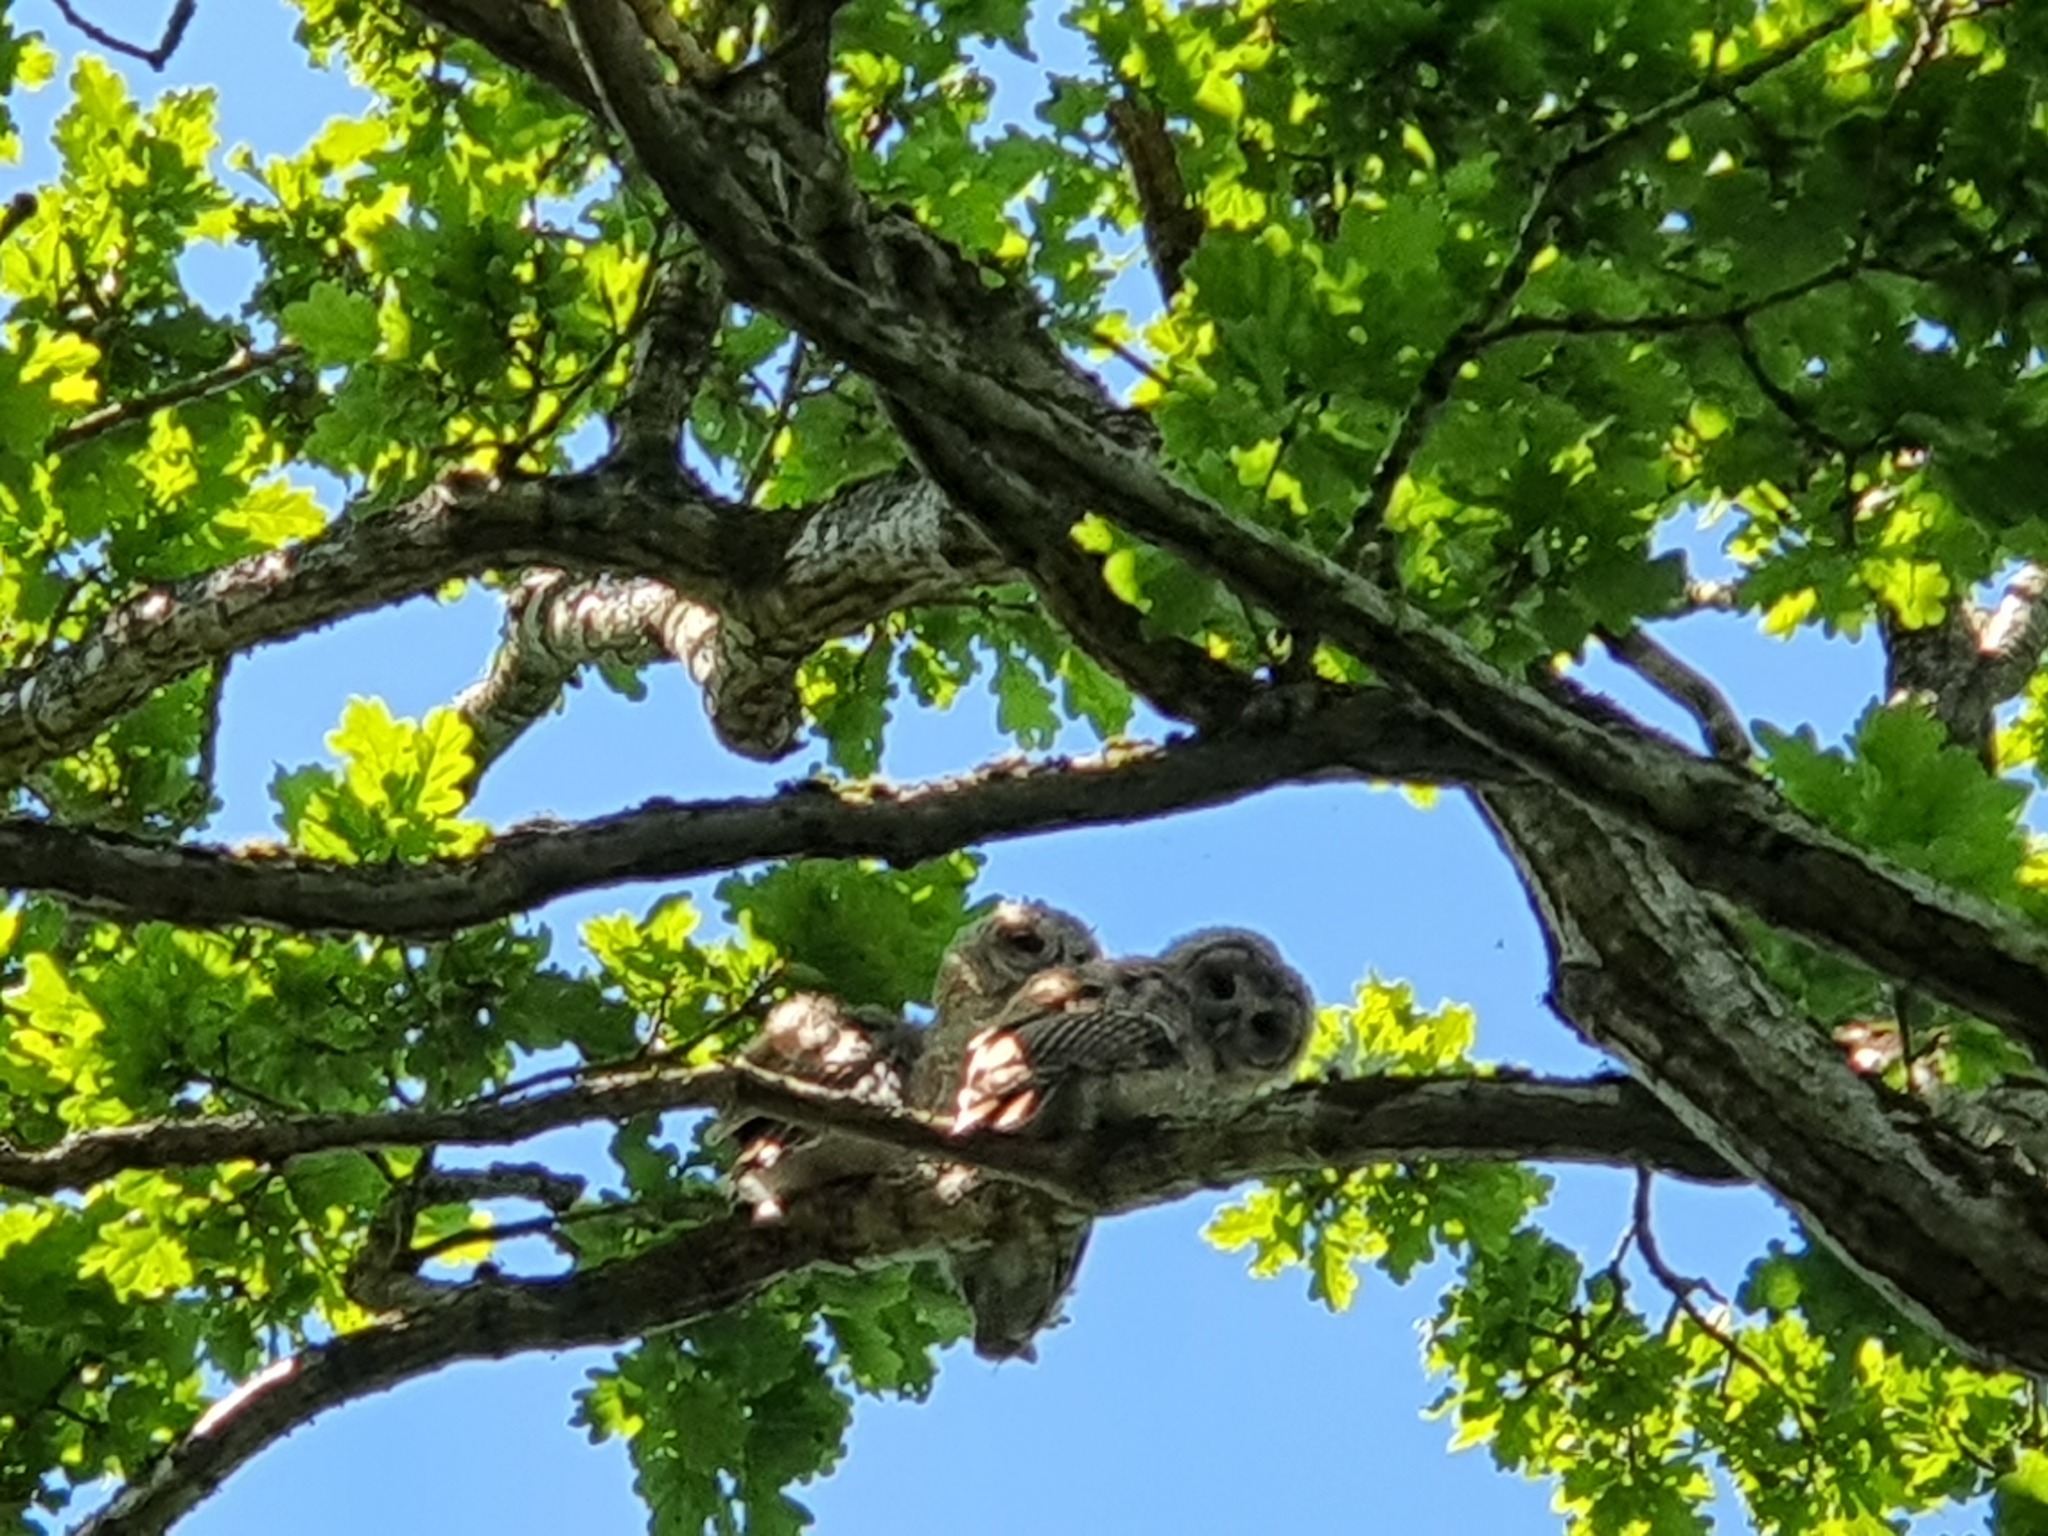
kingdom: Animalia
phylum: Chordata
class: Aves
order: Strigiformes
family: Strigidae
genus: Strix
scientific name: Strix aluco
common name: Tawny owl
